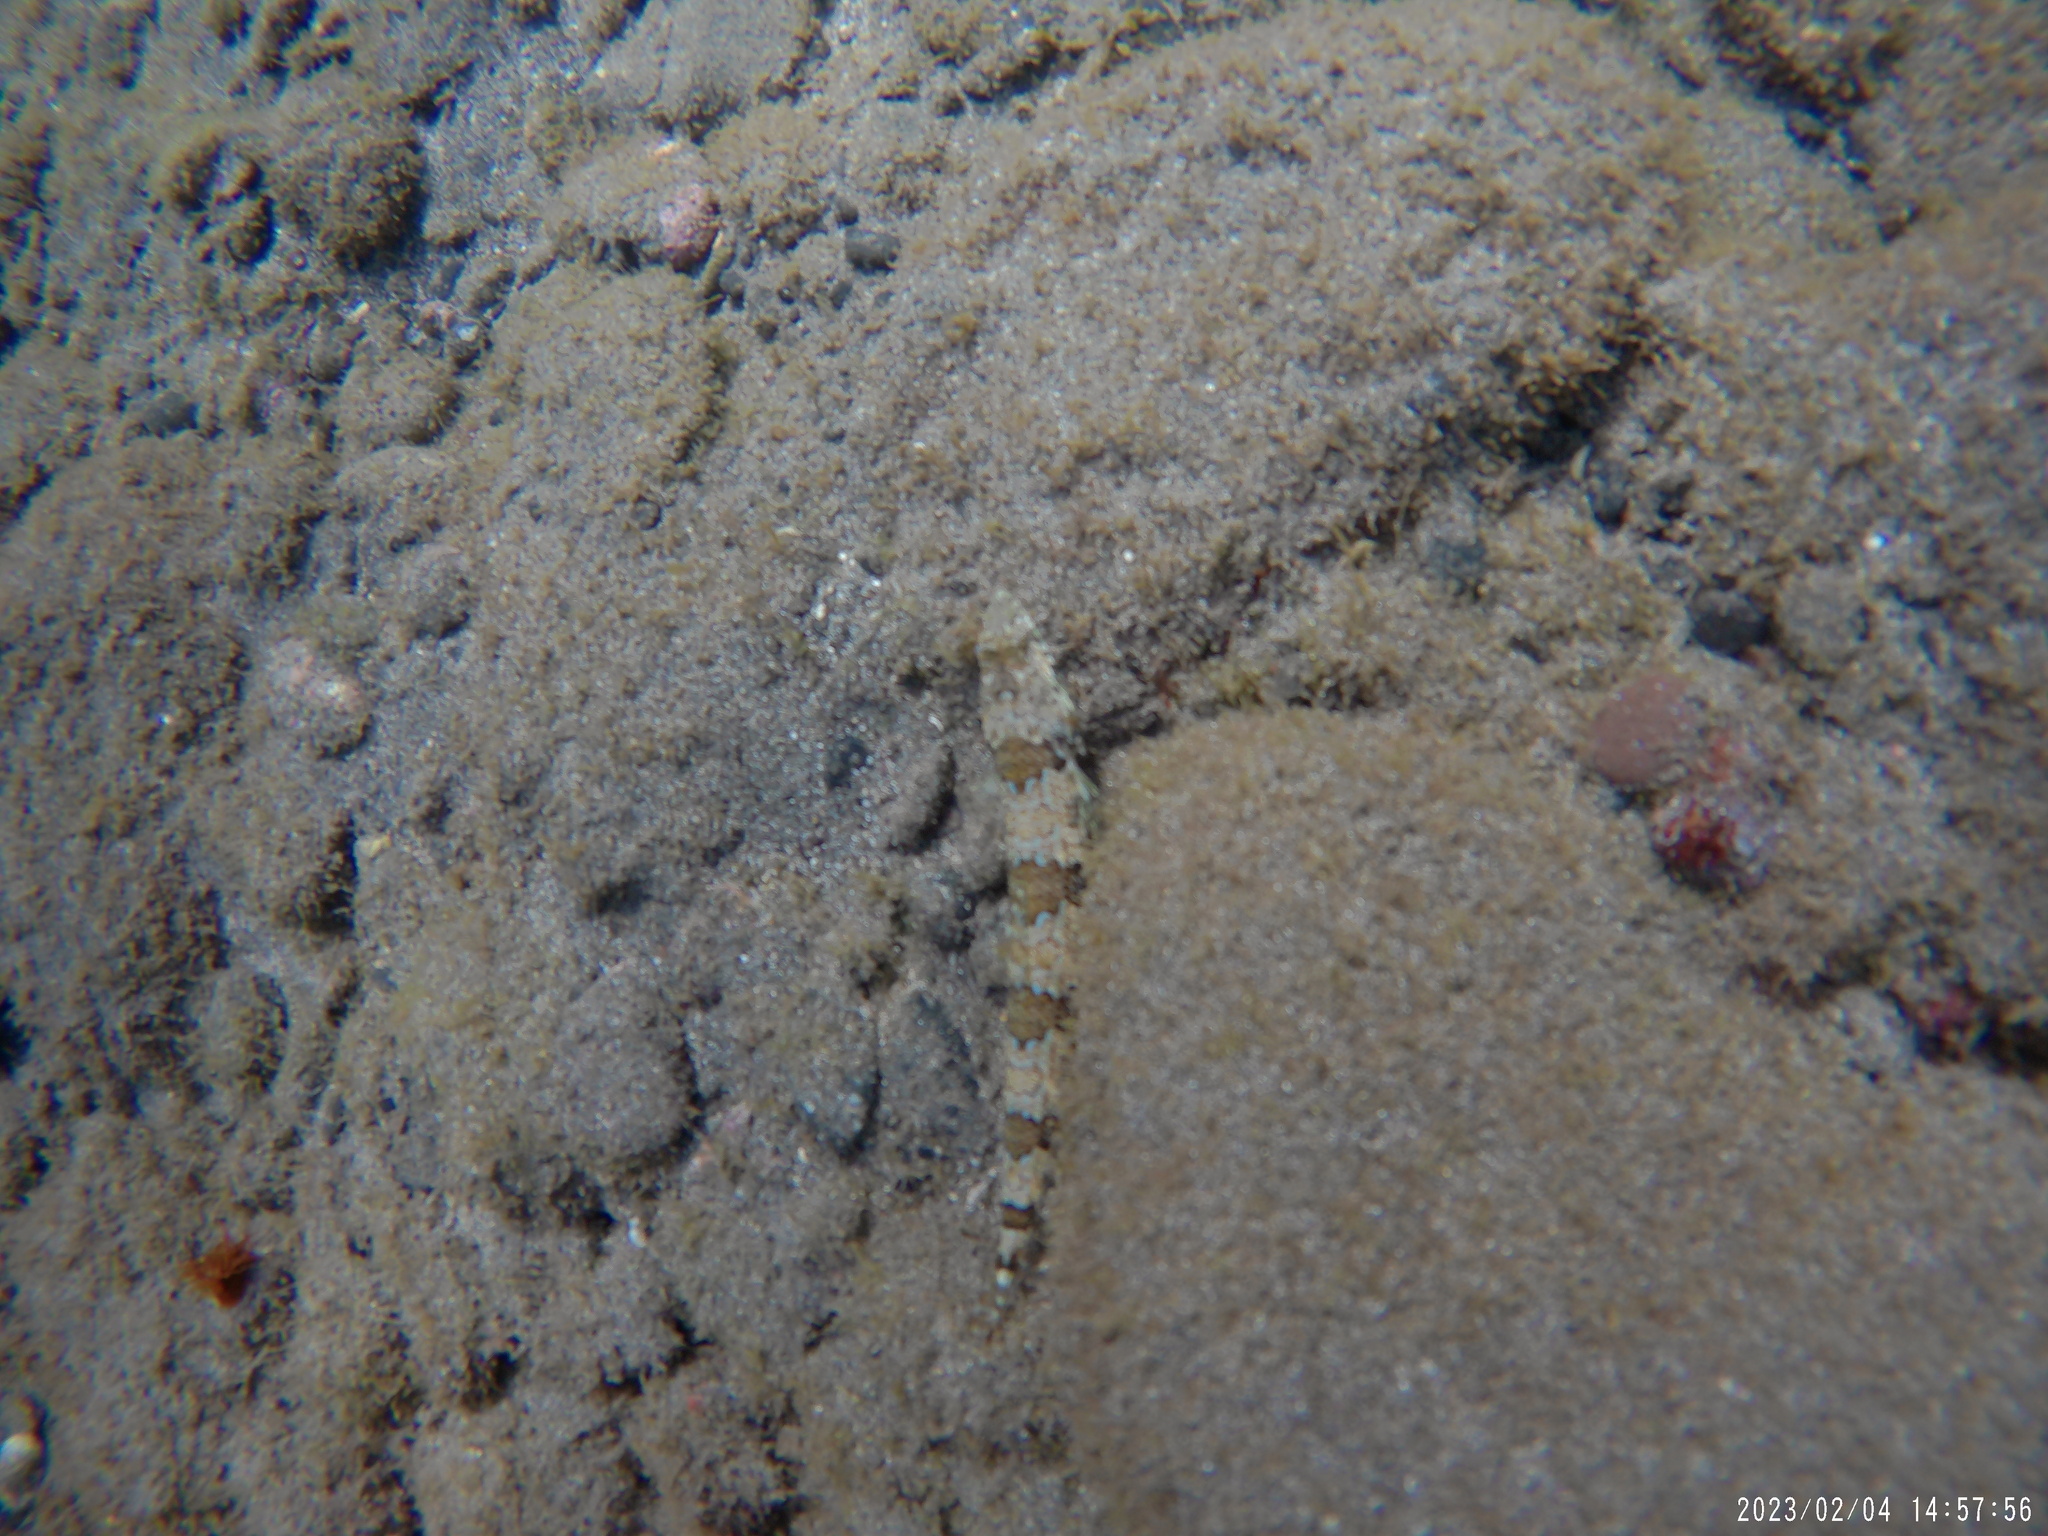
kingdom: Animalia
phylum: Chordata
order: Aulopiformes
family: Synodontidae
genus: Synodus
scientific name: Synodus synodus
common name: Red lizardfish
